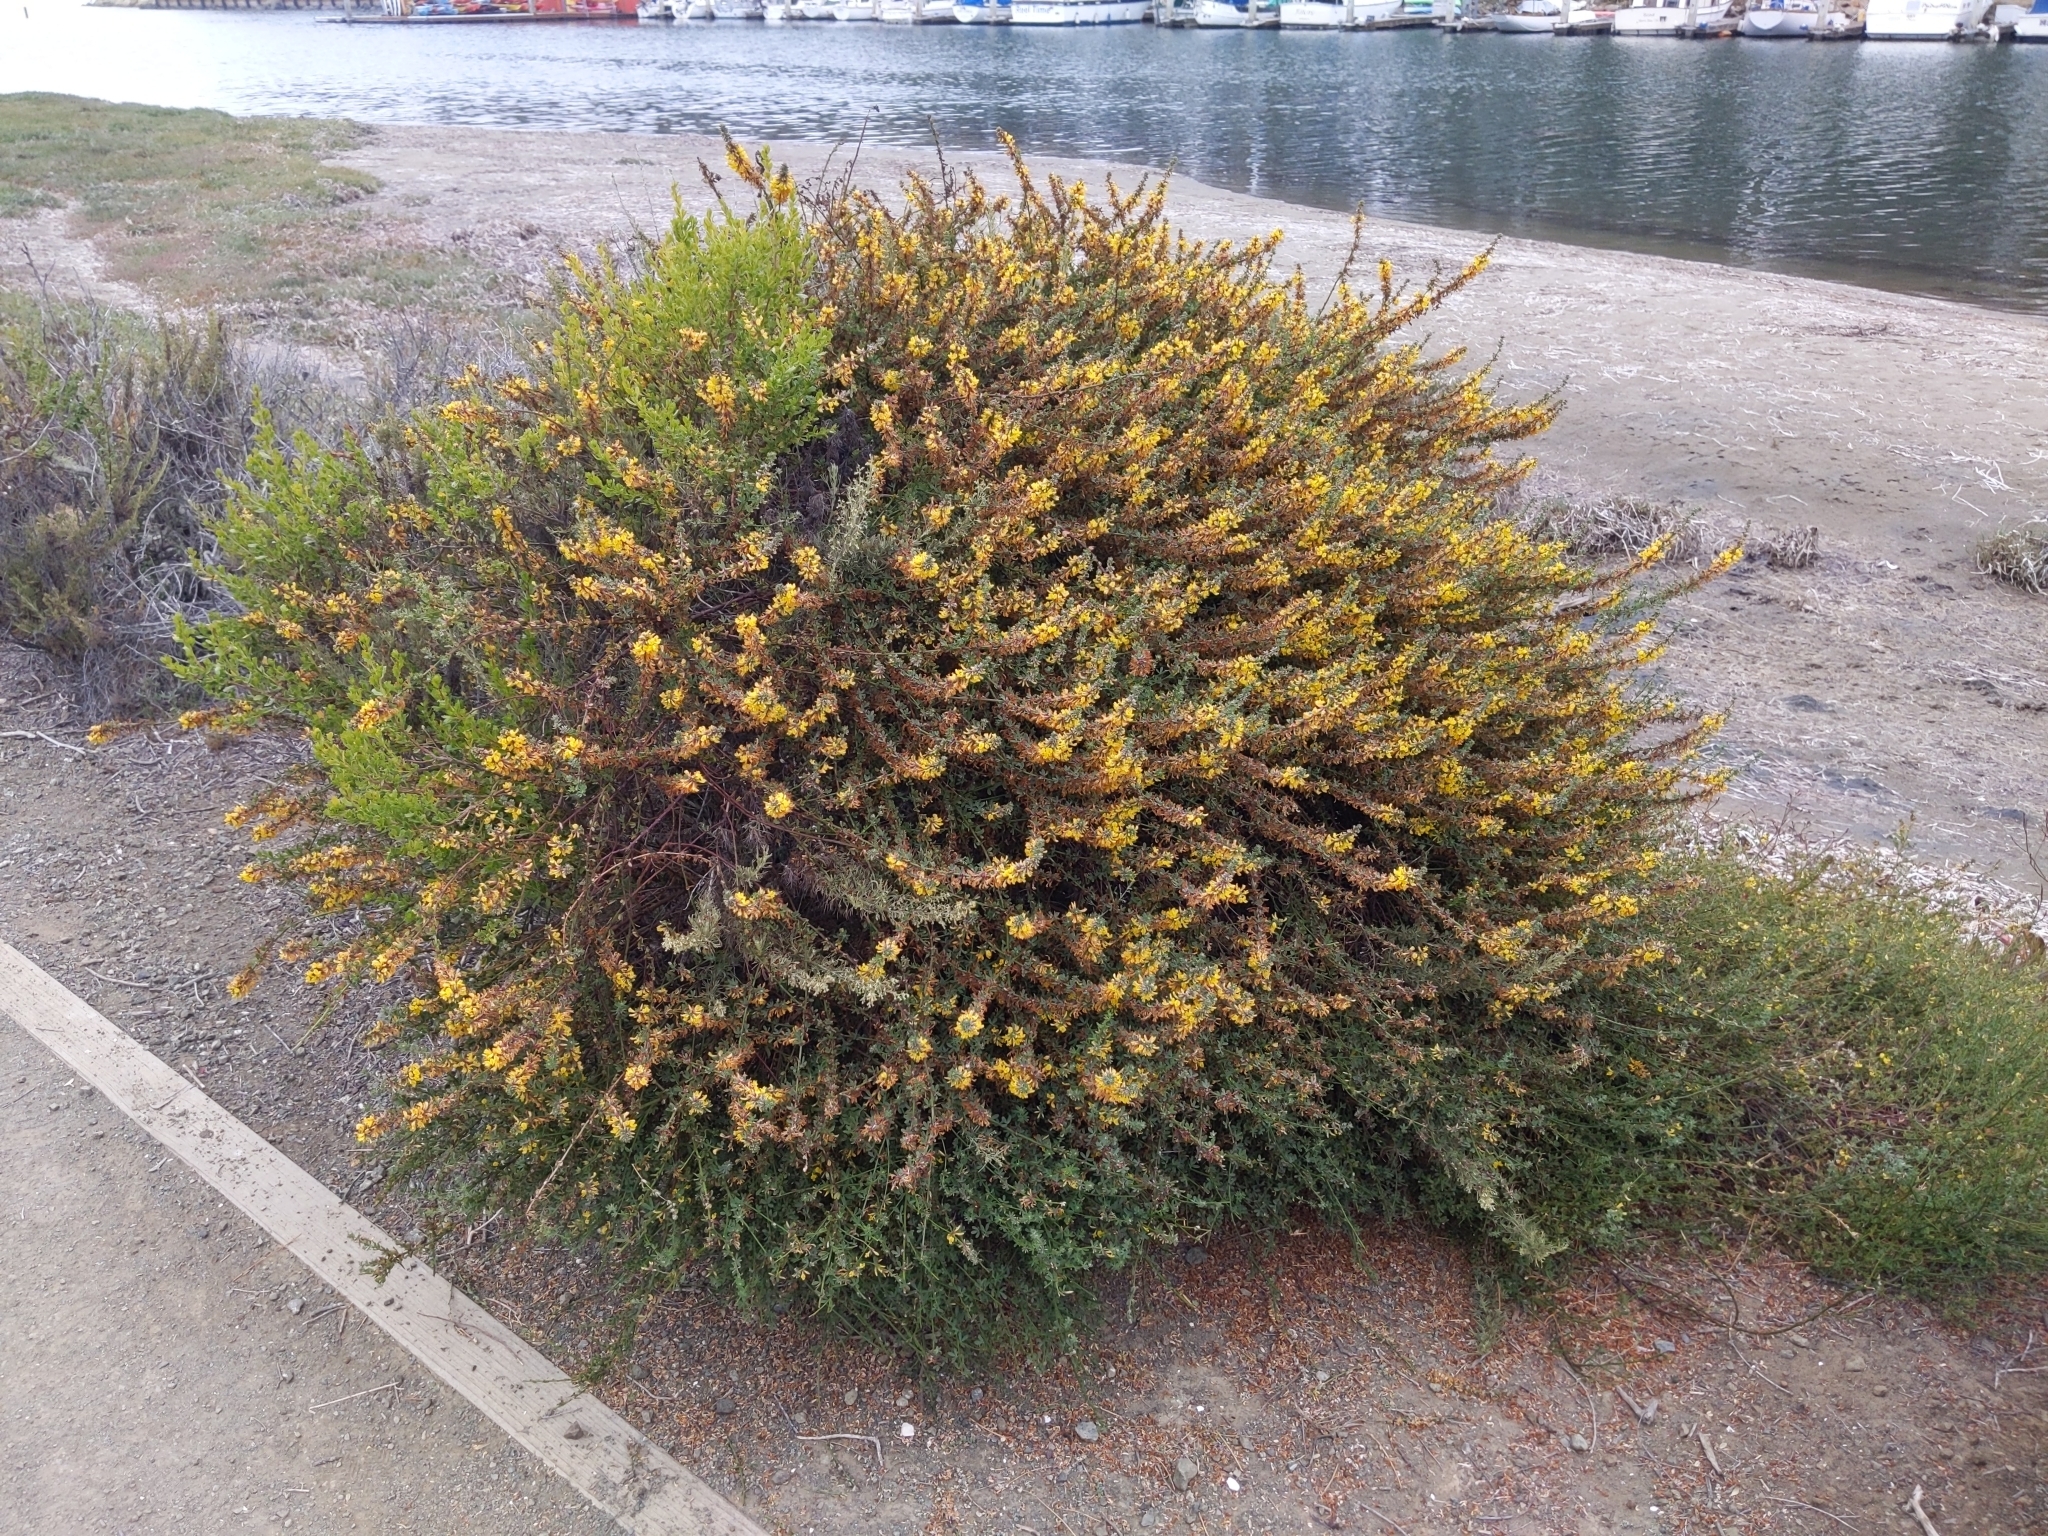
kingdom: Plantae
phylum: Tracheophyta
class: Magnoliopsida
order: Fabales
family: Fabaceae
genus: Acmispon
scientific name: Acmispon glaber
